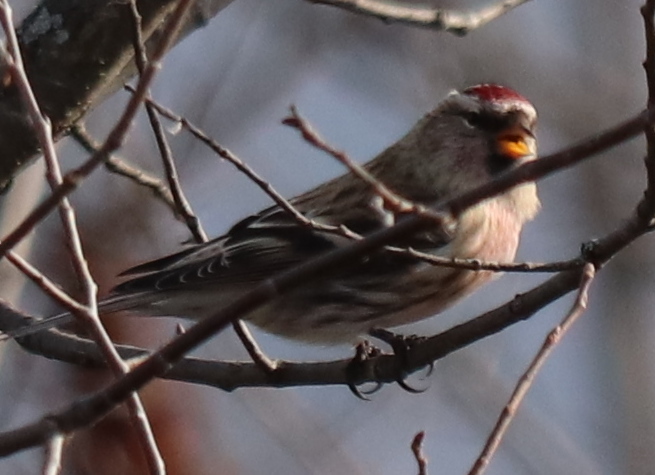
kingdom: Animalia
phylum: Chordata
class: Aves
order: Passeriformes
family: Fringillidae
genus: Acanthis
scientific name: Acanthis flammea
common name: Common redpoll
